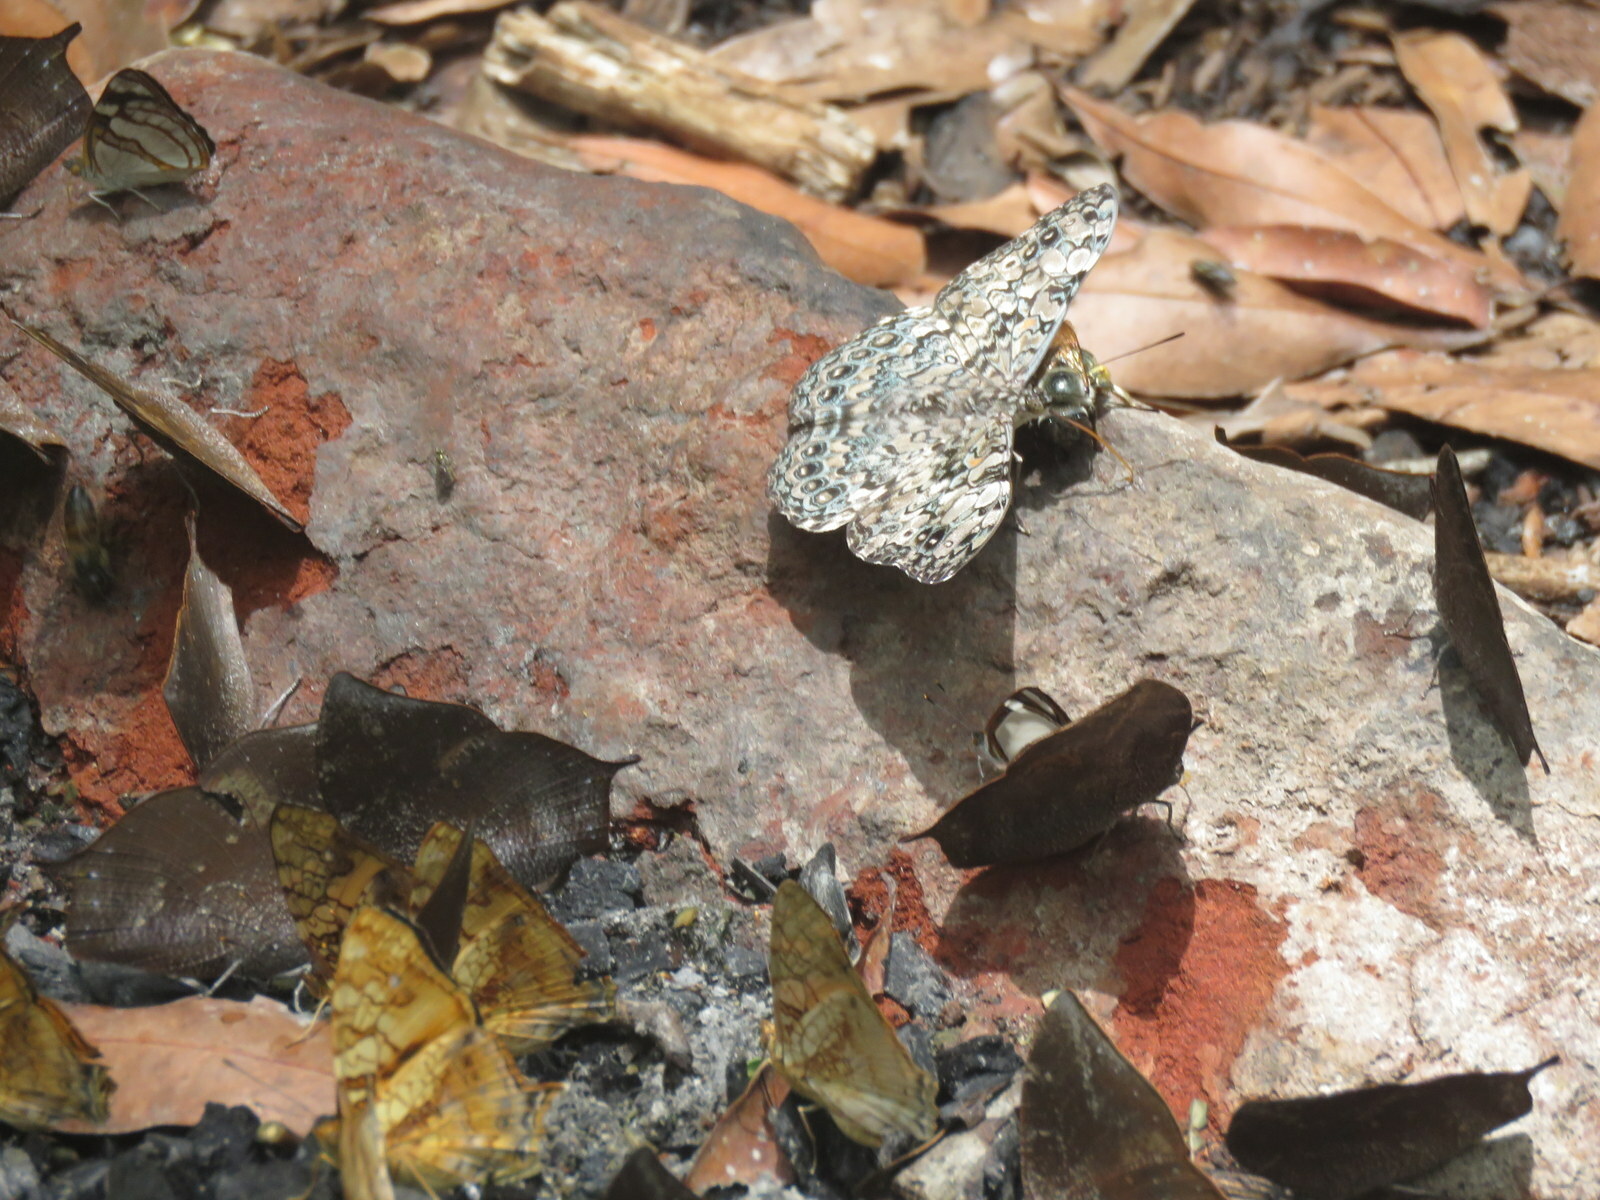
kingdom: Animalia
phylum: Arthropoda
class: Insecta
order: Lepidoptera
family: Nymphalidae
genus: Hamadryas
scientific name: Hamadryas epinome
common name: Epinome cracker
